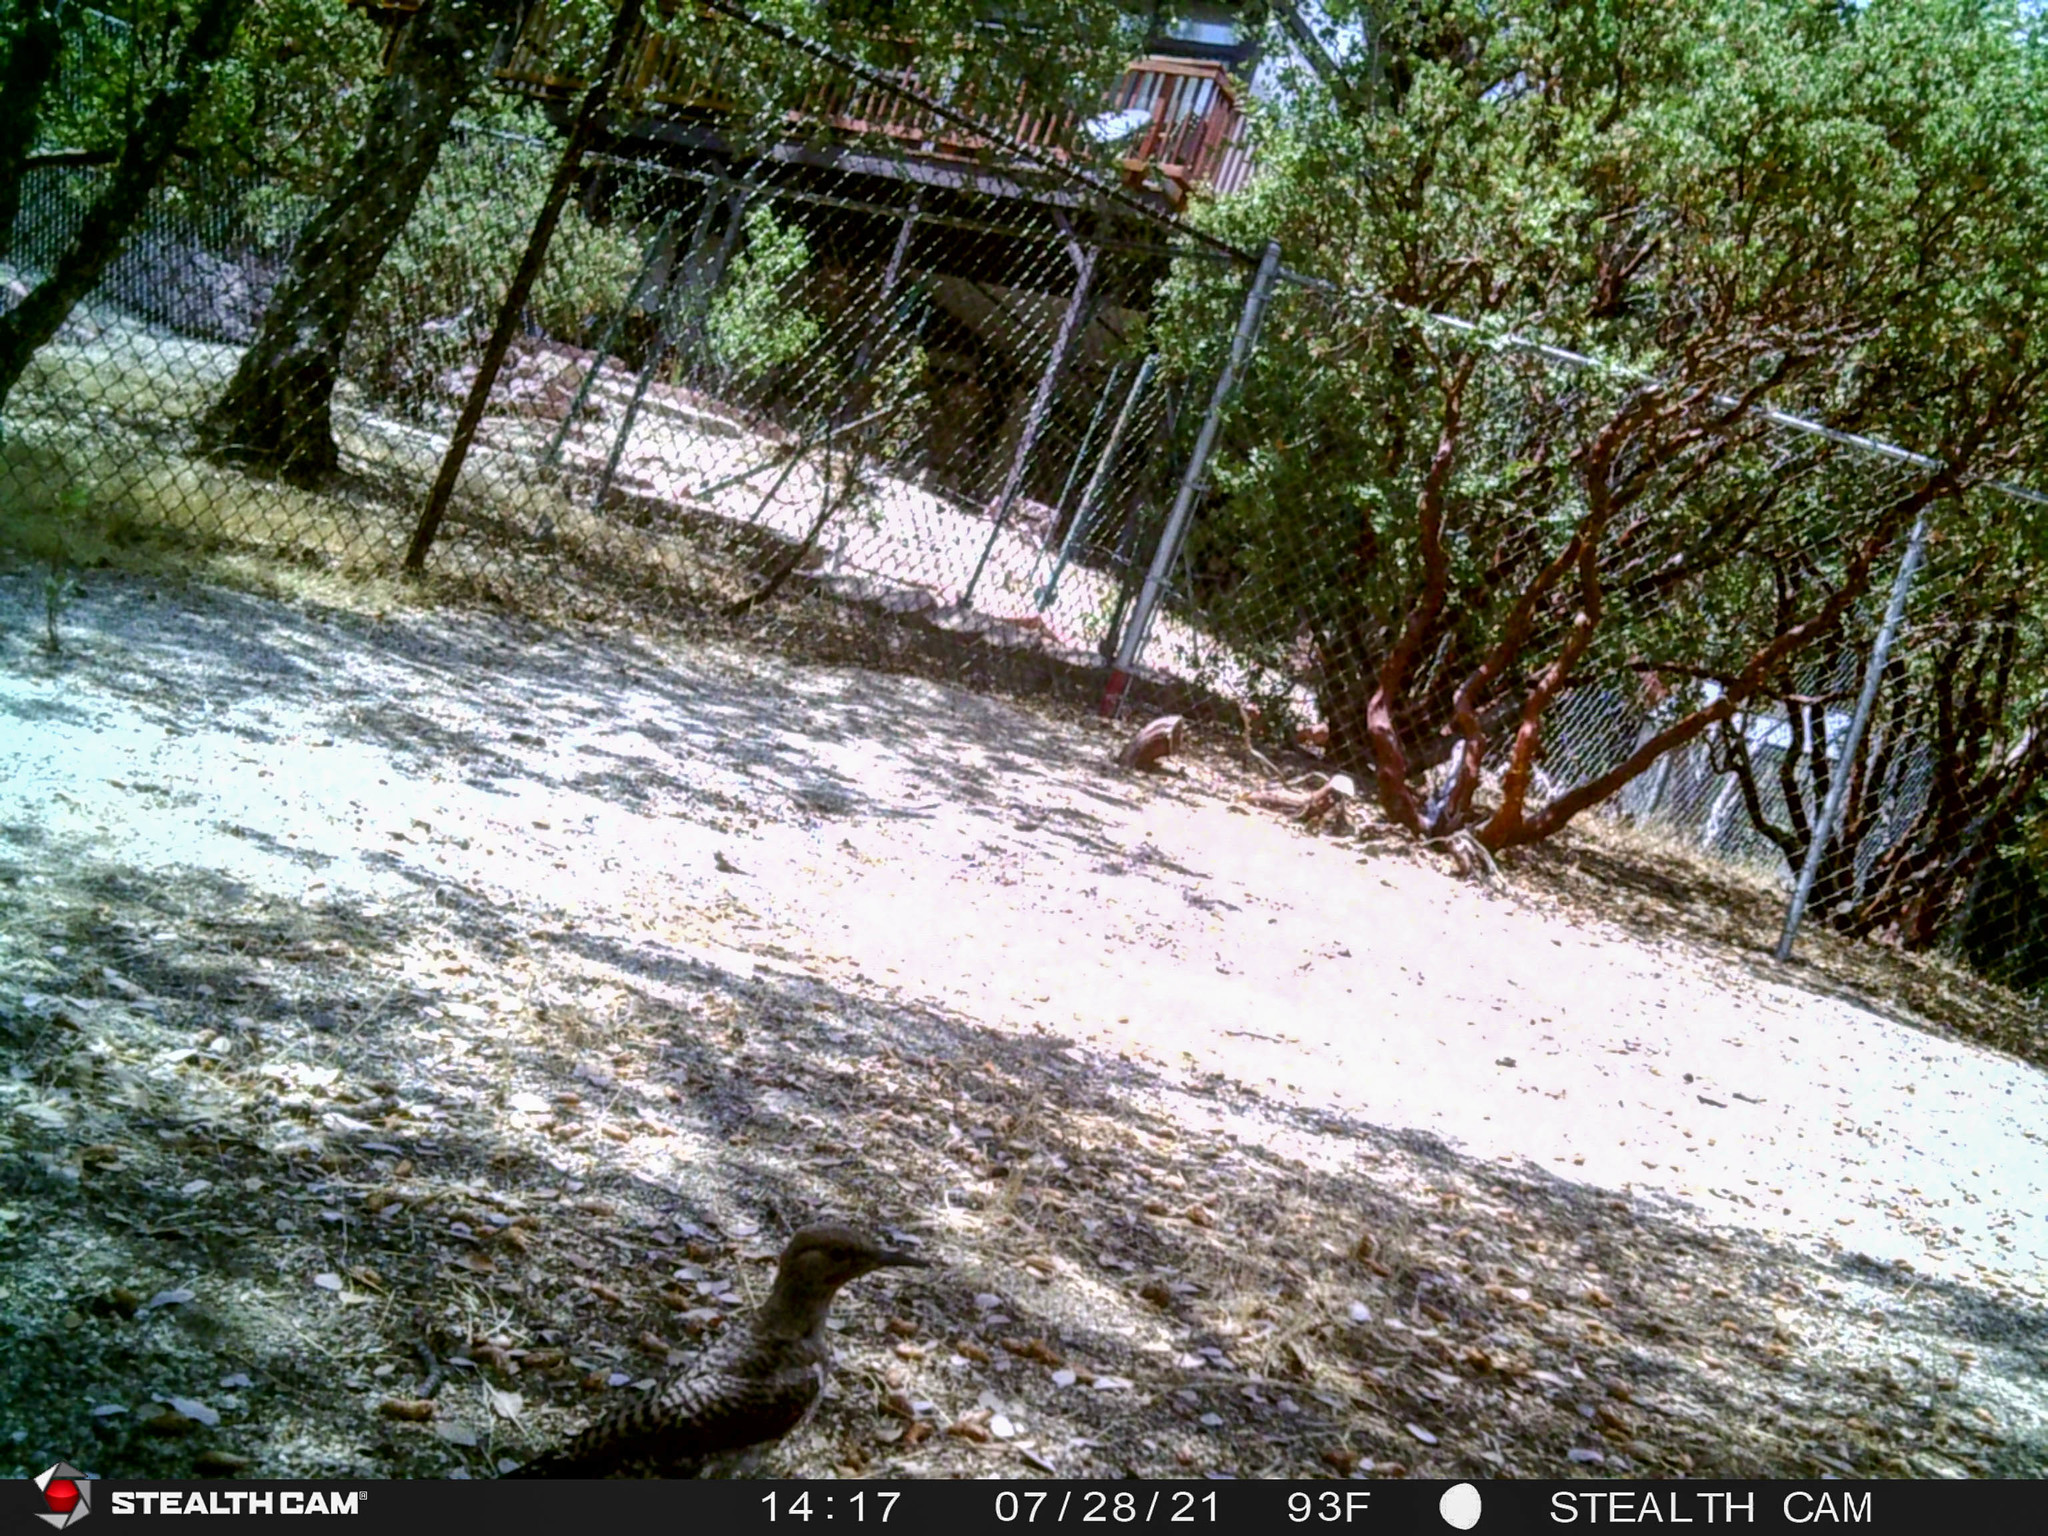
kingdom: Animalia
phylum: Chordata
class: Aves
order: Piciformes
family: Picidae
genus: Colaptes
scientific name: Colaptes auratus
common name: Northern flicker
